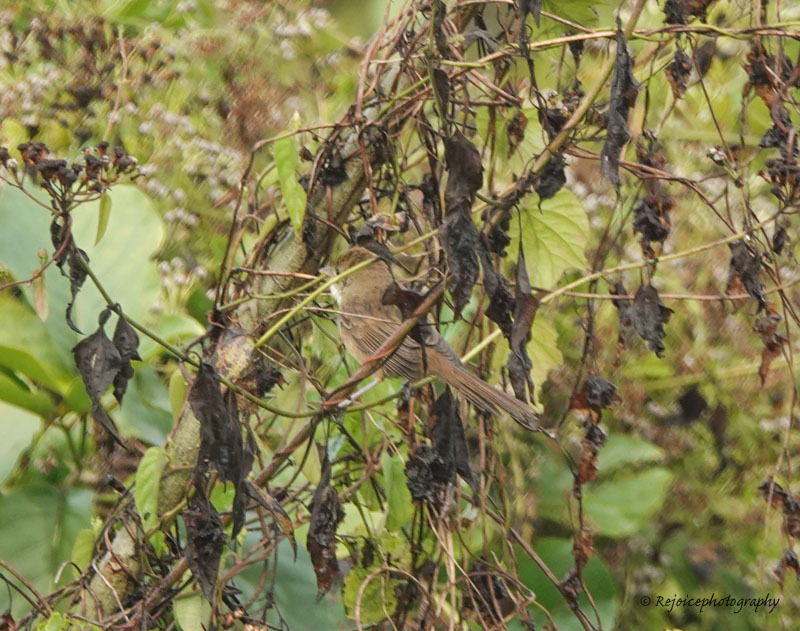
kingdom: Animalia
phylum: Chordata
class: Aves
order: Passeriformes
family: Acrocephalidae
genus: Iduna
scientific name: Iduna aedon
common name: Thick-billed warbler
